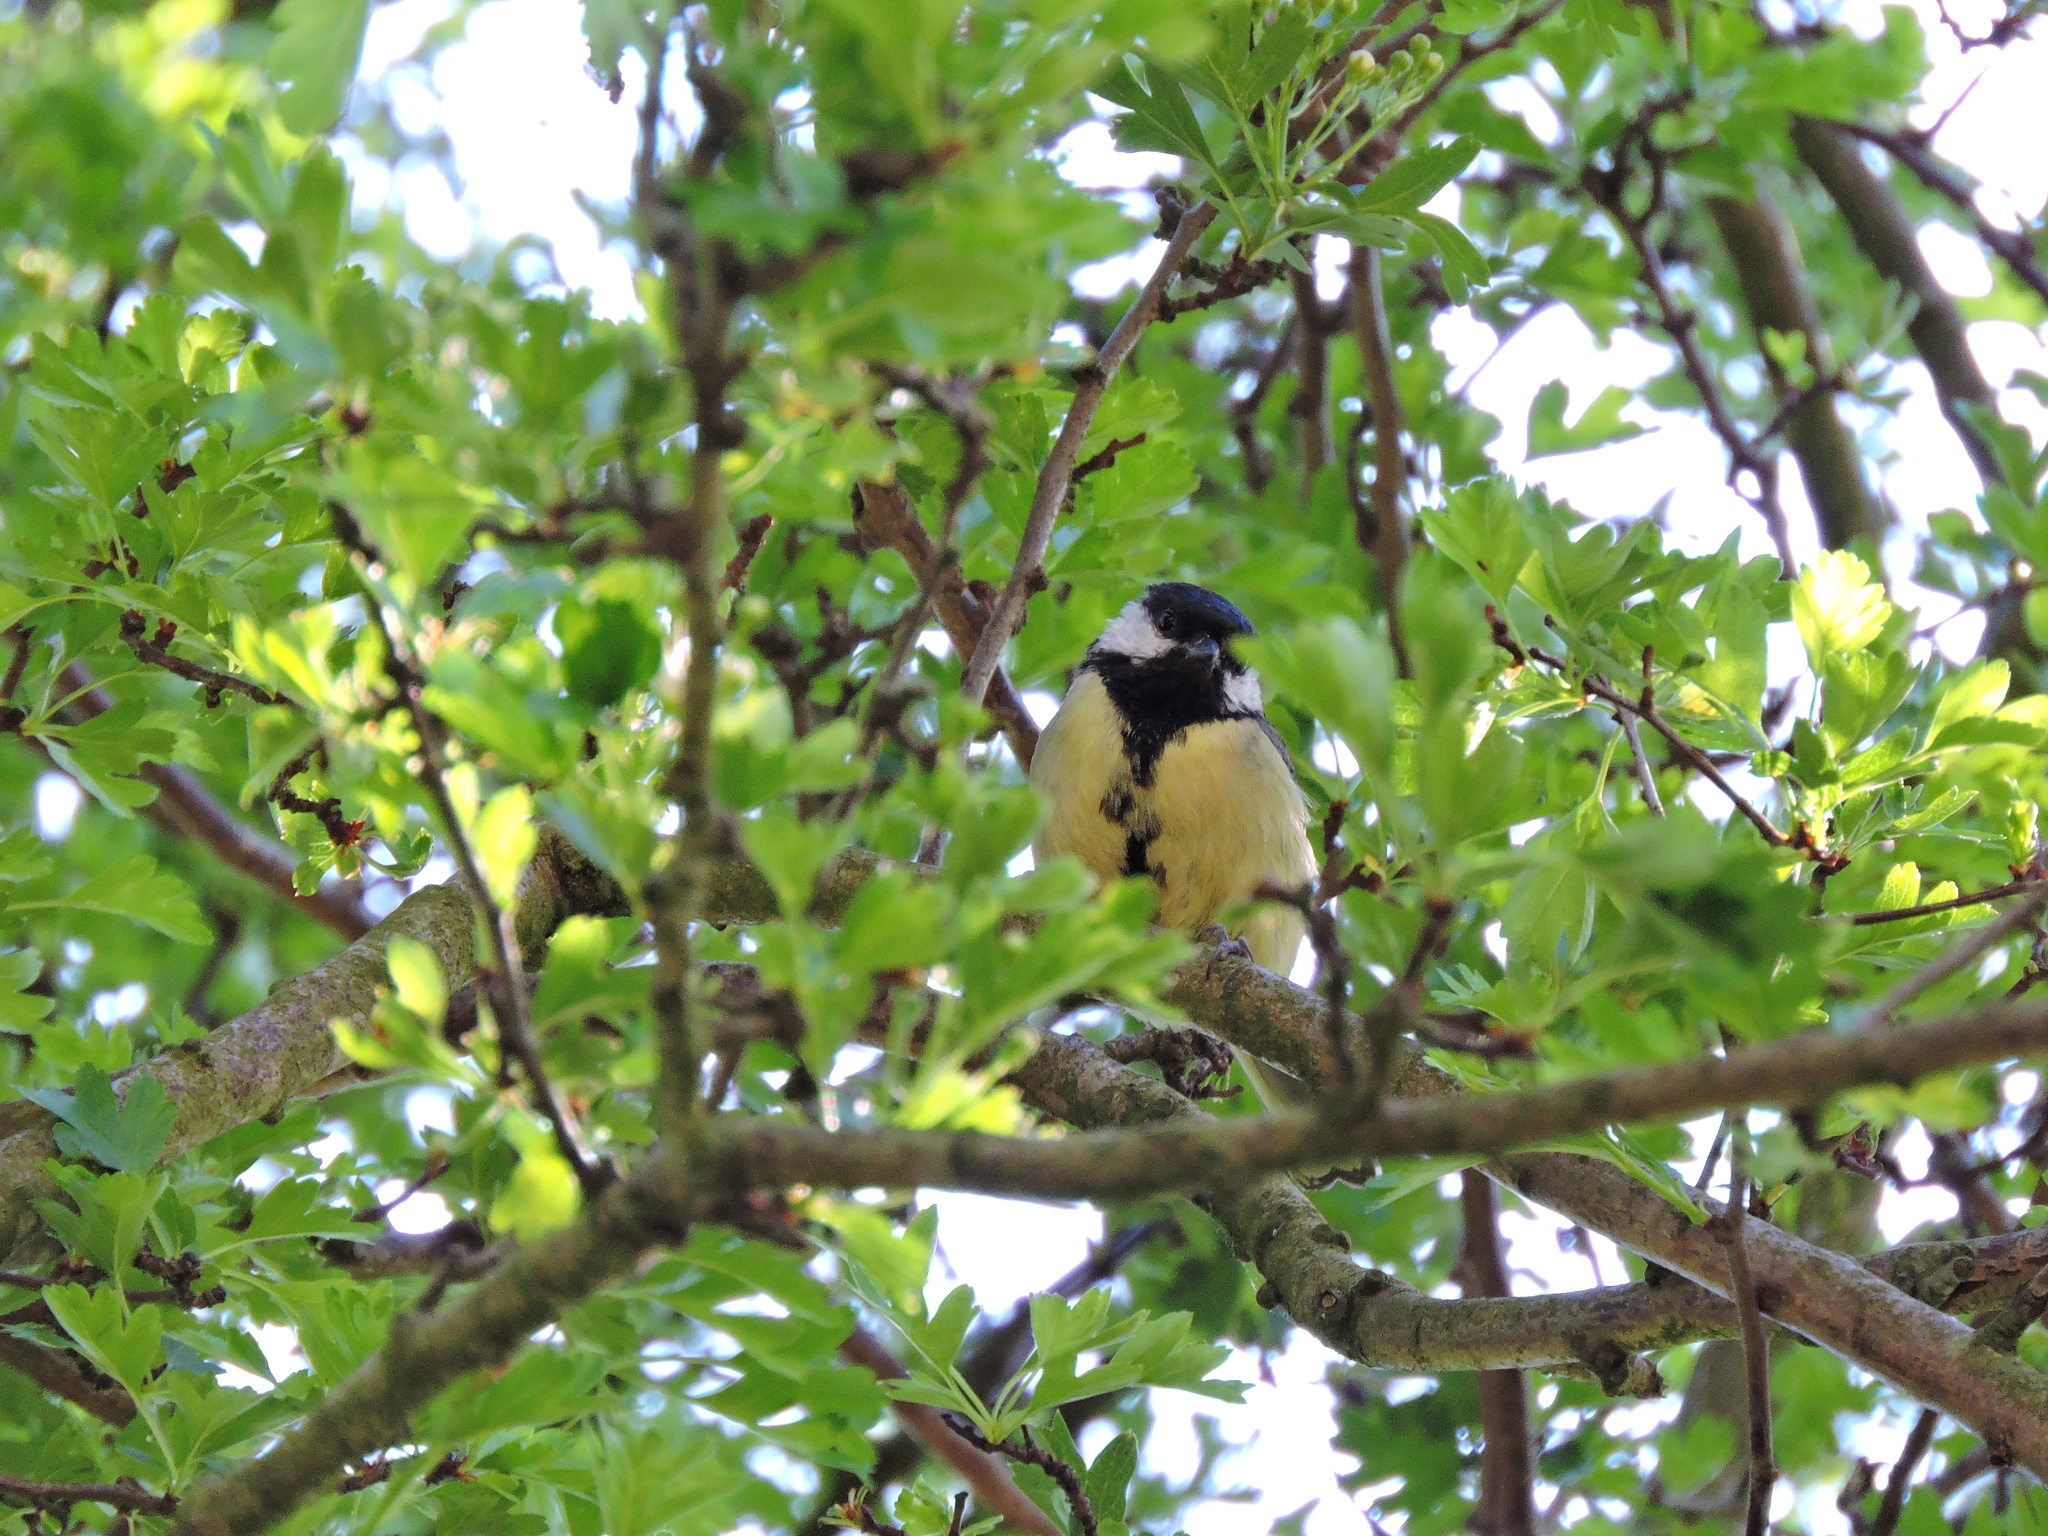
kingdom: Animalia
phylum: Chordata
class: Aves
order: Passeriformes
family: Paridae
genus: Parus
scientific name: Parus major
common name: Great tit
